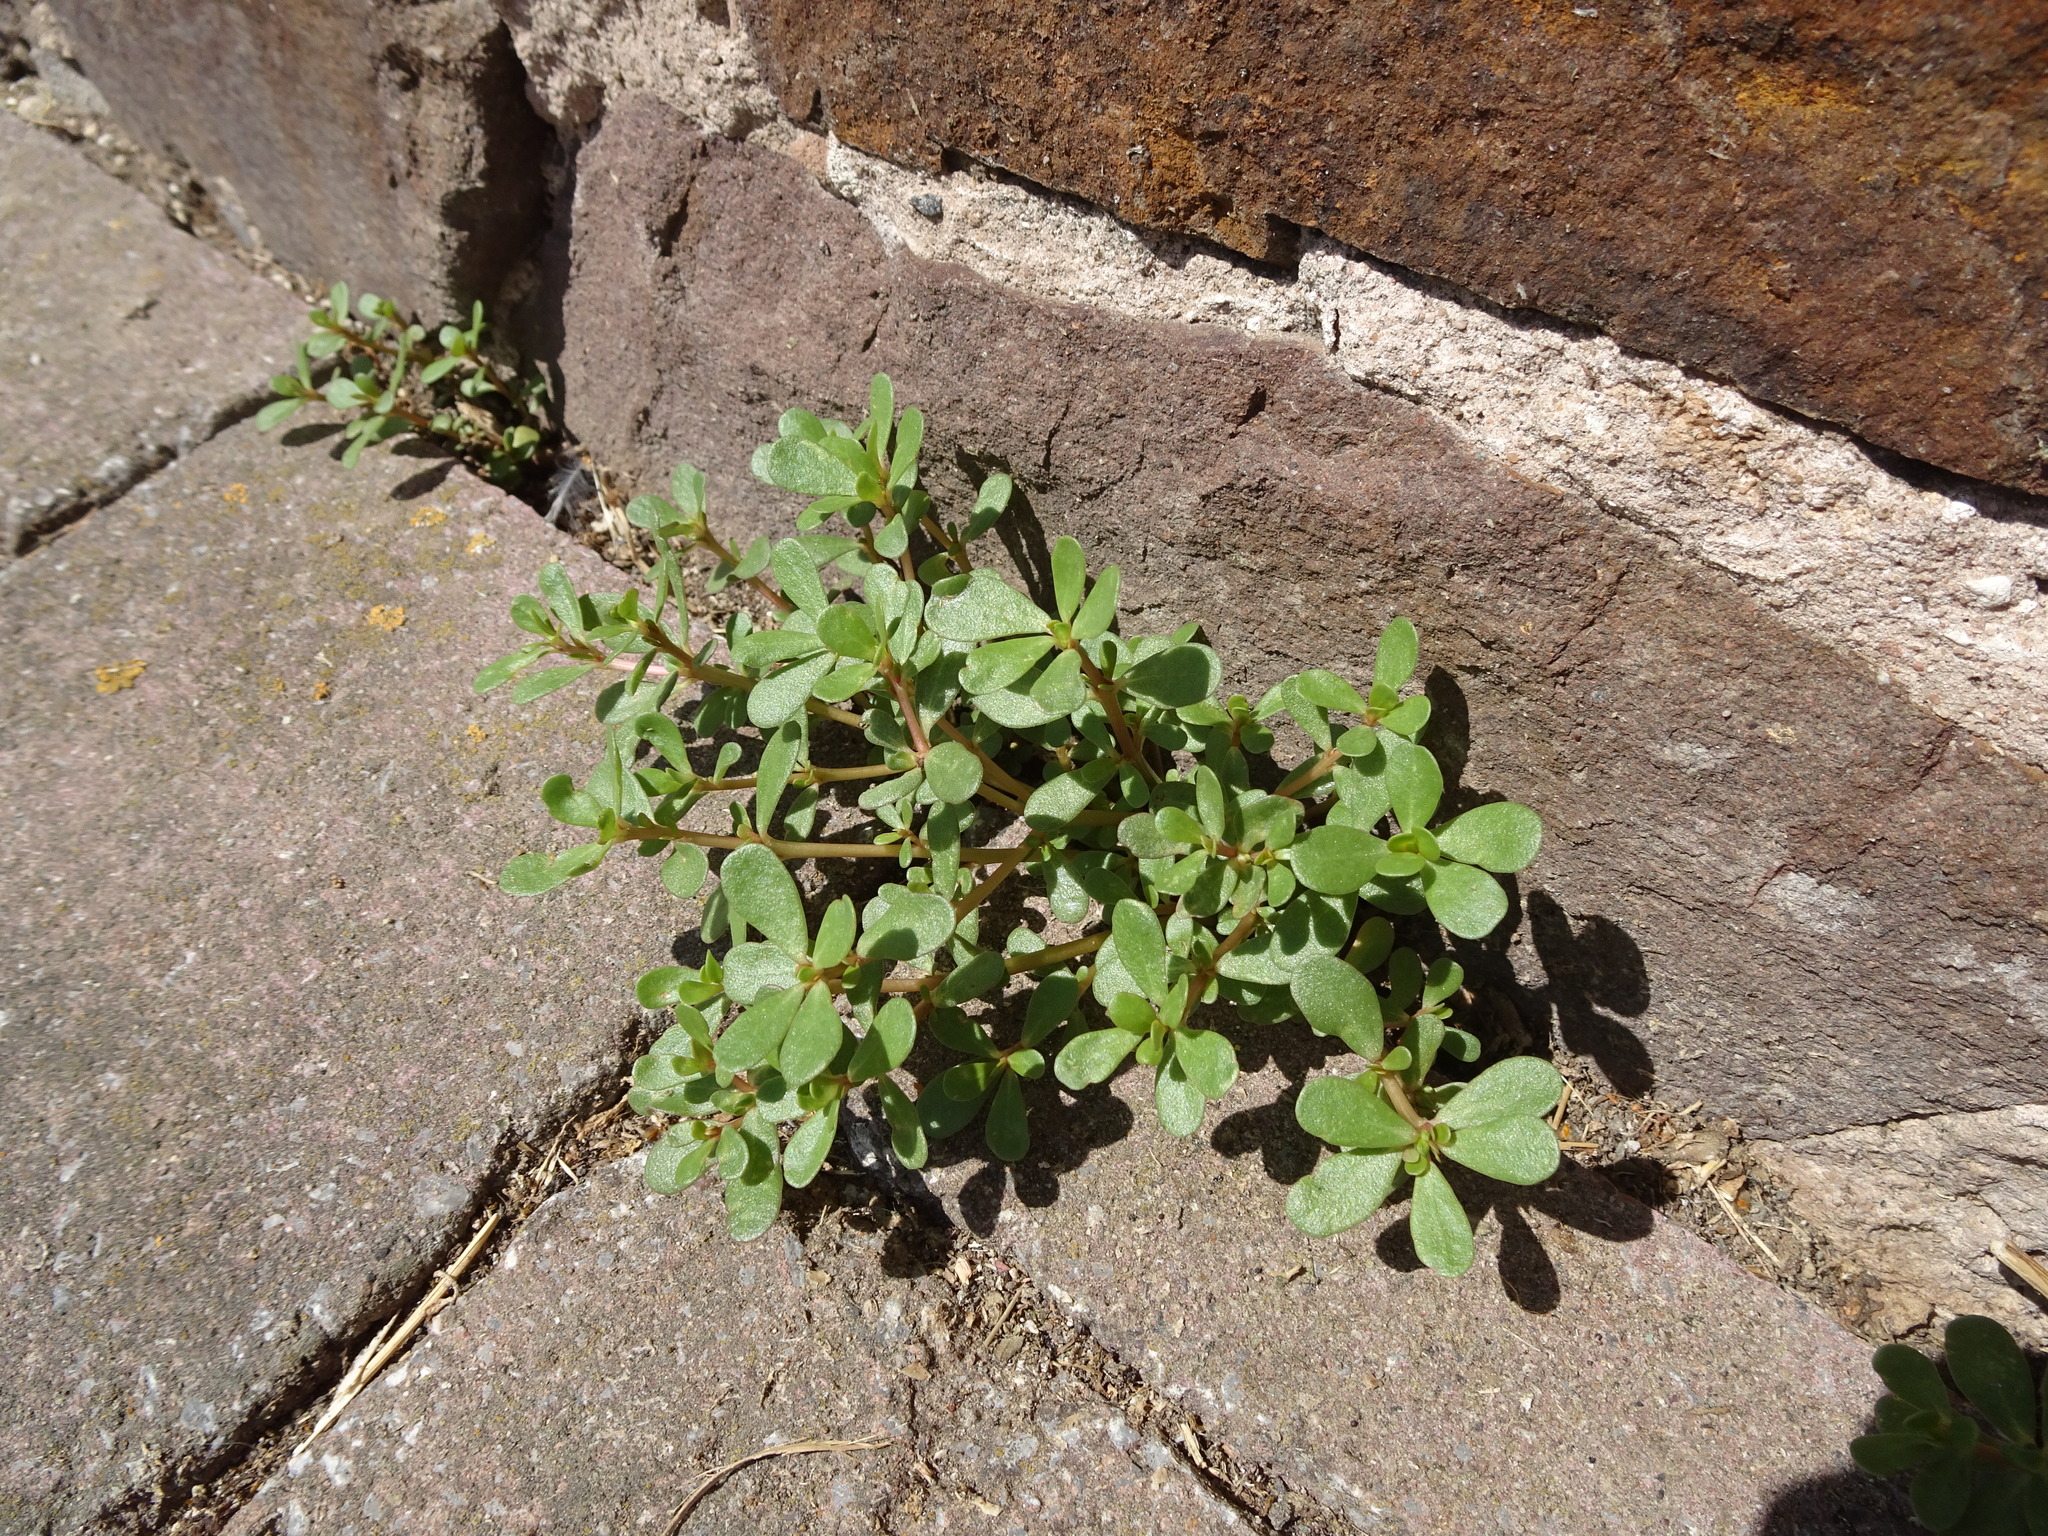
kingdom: Plantae
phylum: Tracheophyta
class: Magnoliopsida
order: Caryophyllales
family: Portulacaceae
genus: Portulaca
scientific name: Portulaca oleracea
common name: Common purslane
